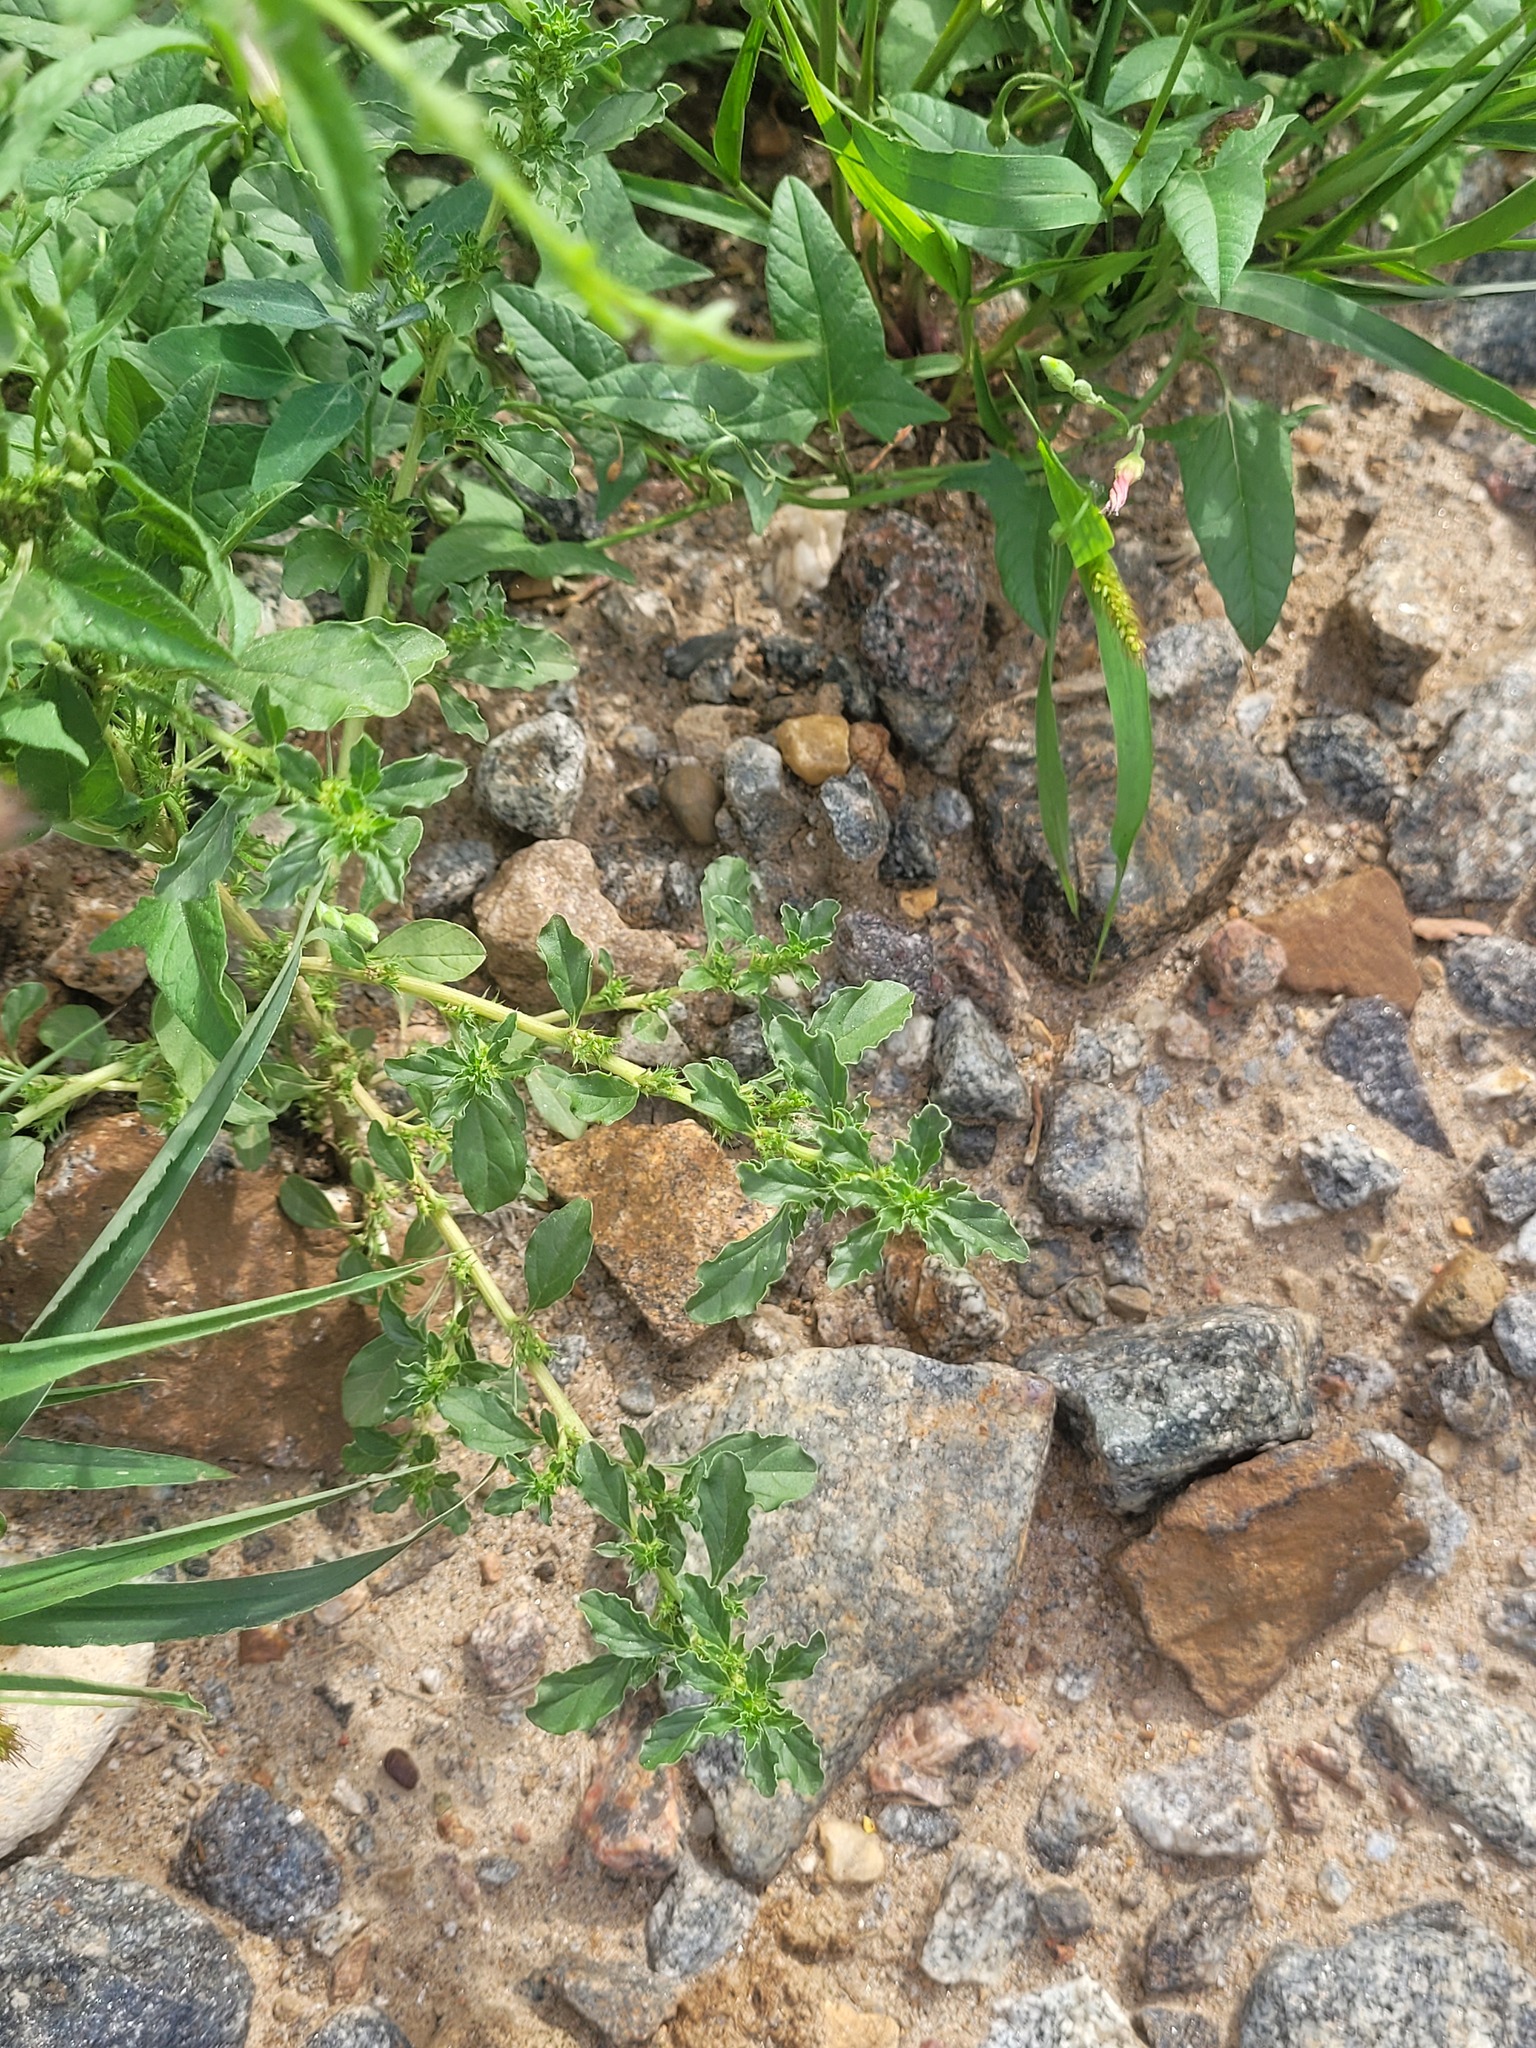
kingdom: Plantae
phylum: Tracheophyta
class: Magnoliopsida
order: Caryophyllales
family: Amaranthaceae
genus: Amaranthus
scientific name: Amaranthus albus
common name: White pigweed
